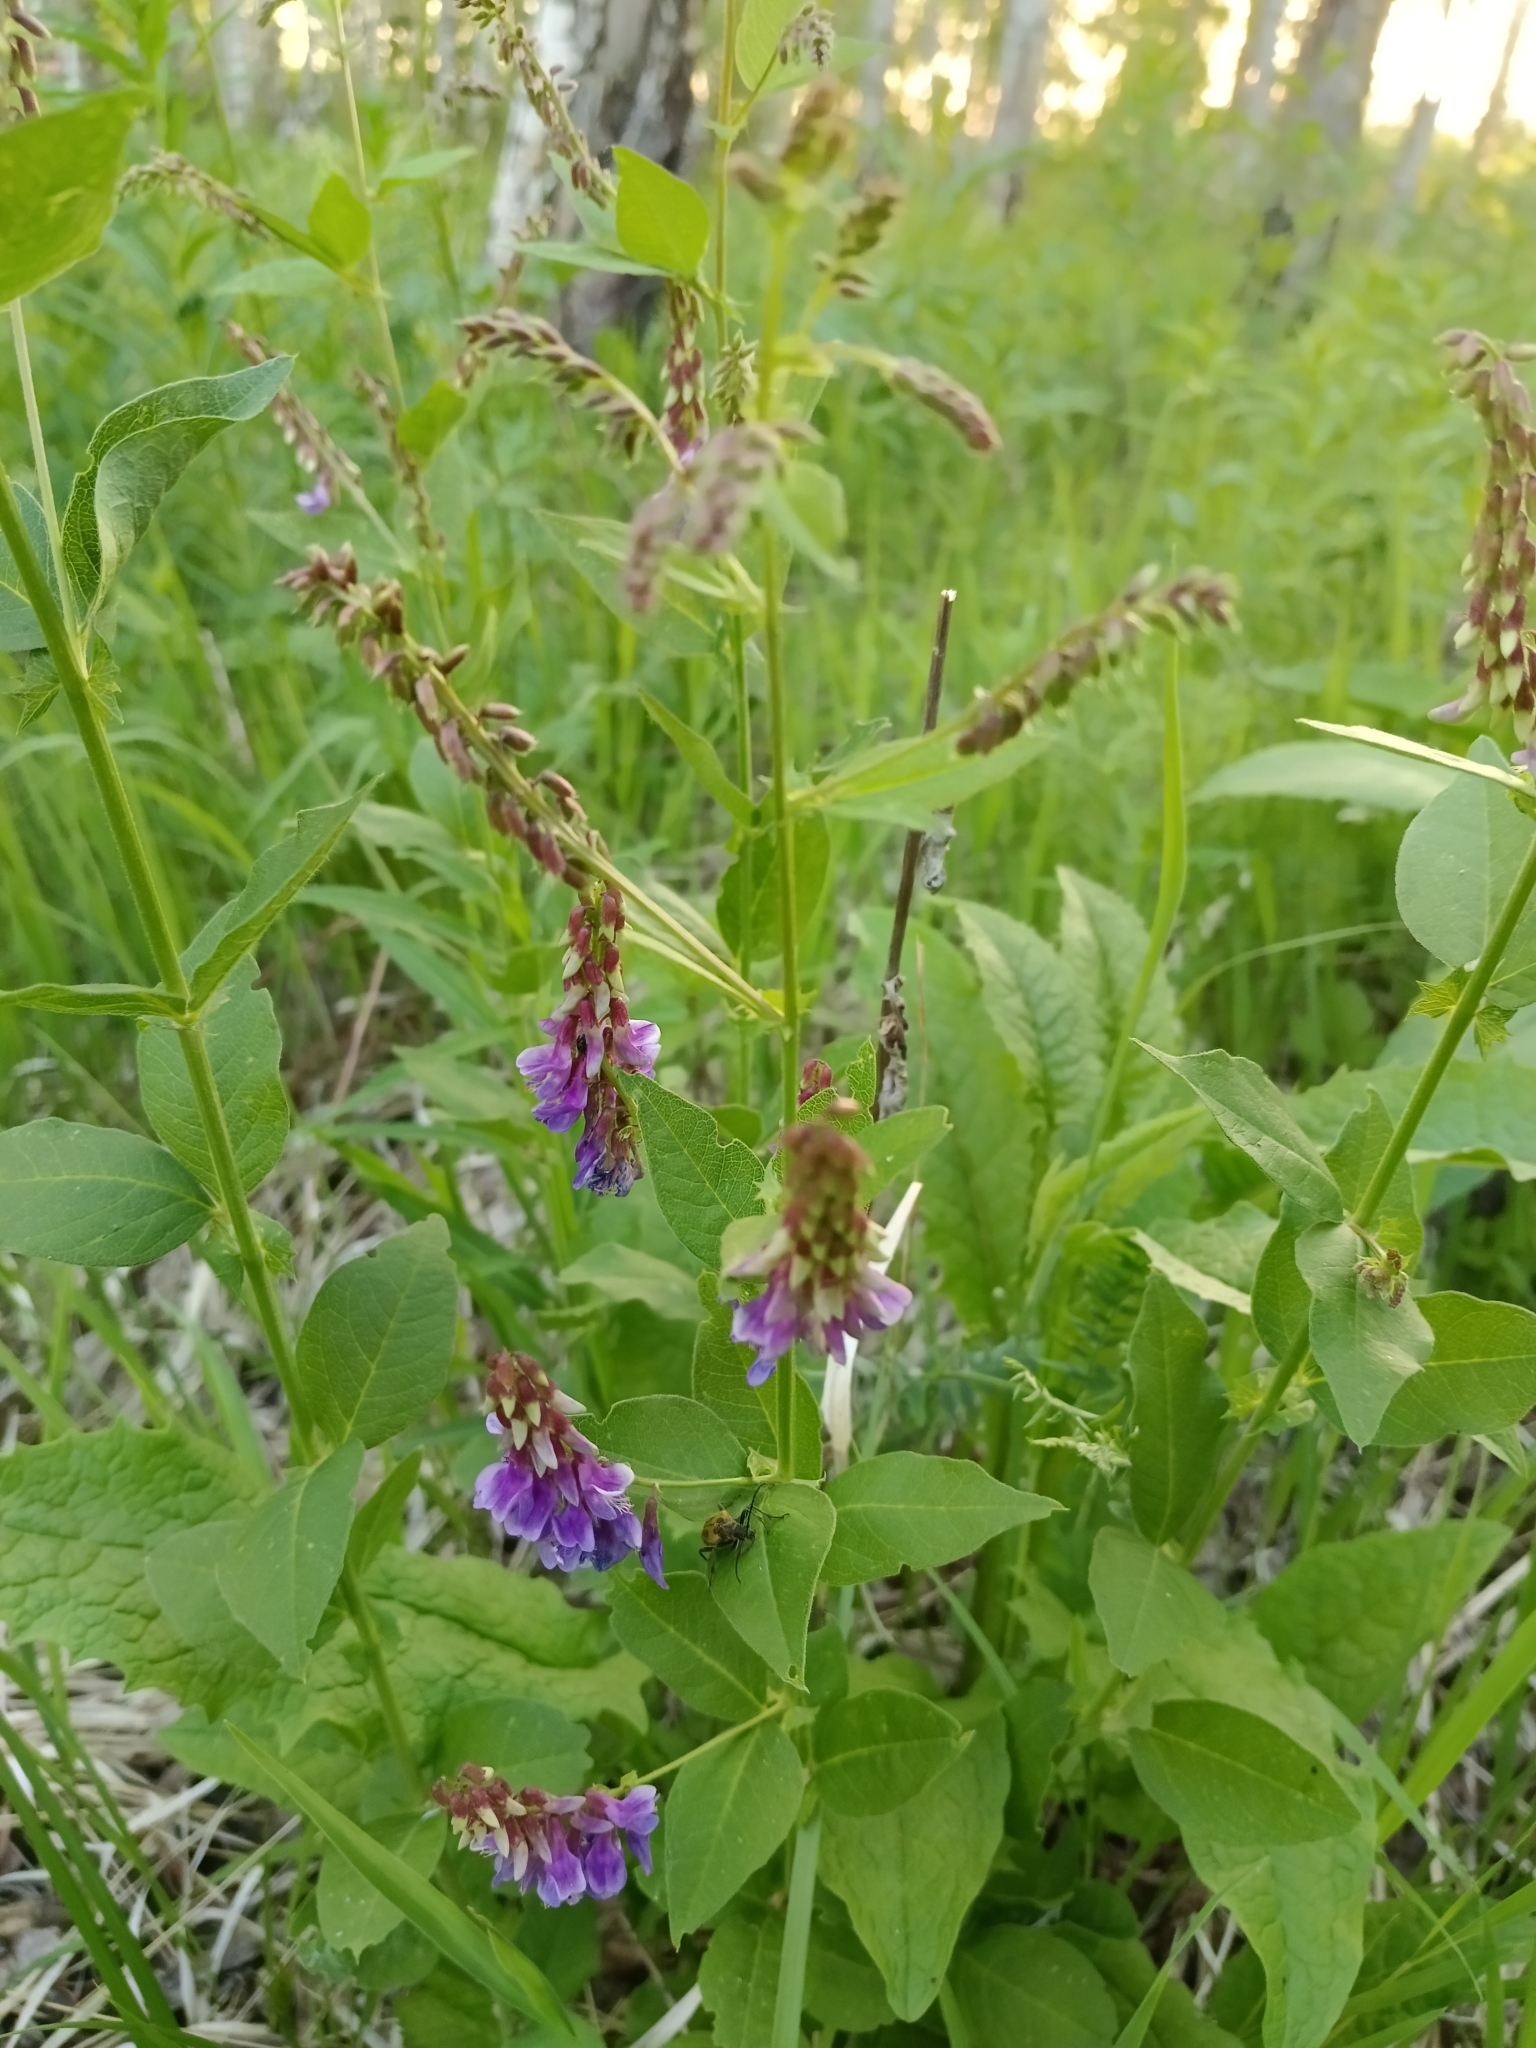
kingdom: Plantae
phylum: Tracheophyta
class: Magnoliopsida
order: Fabales
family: Fabaceae
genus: Vicia
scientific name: Vicia unijuga
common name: Two-leaf vetch
